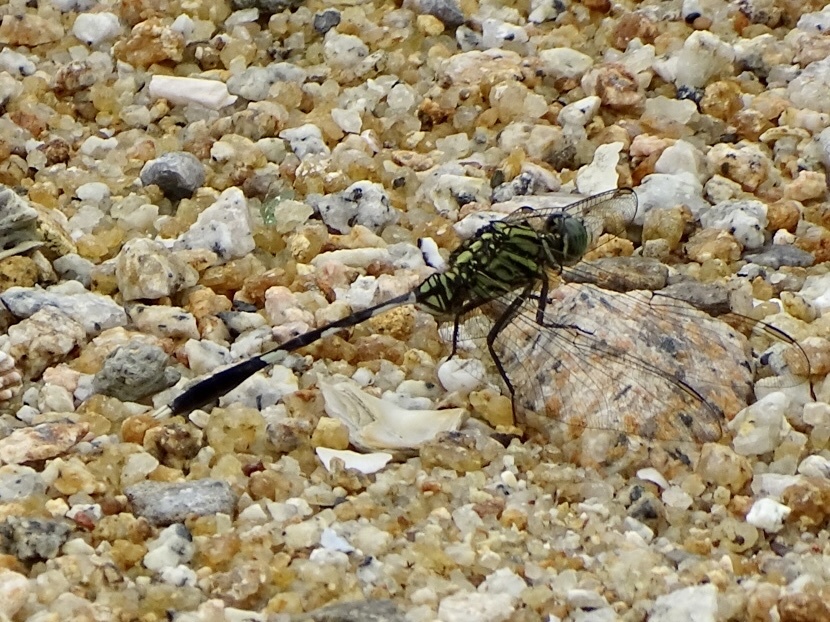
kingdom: Animalia
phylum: Arthropoda
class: Insecta
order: Odonata
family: Libellulidae
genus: Orthetrum
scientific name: Orthetrum sabina
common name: Slender skimmer
